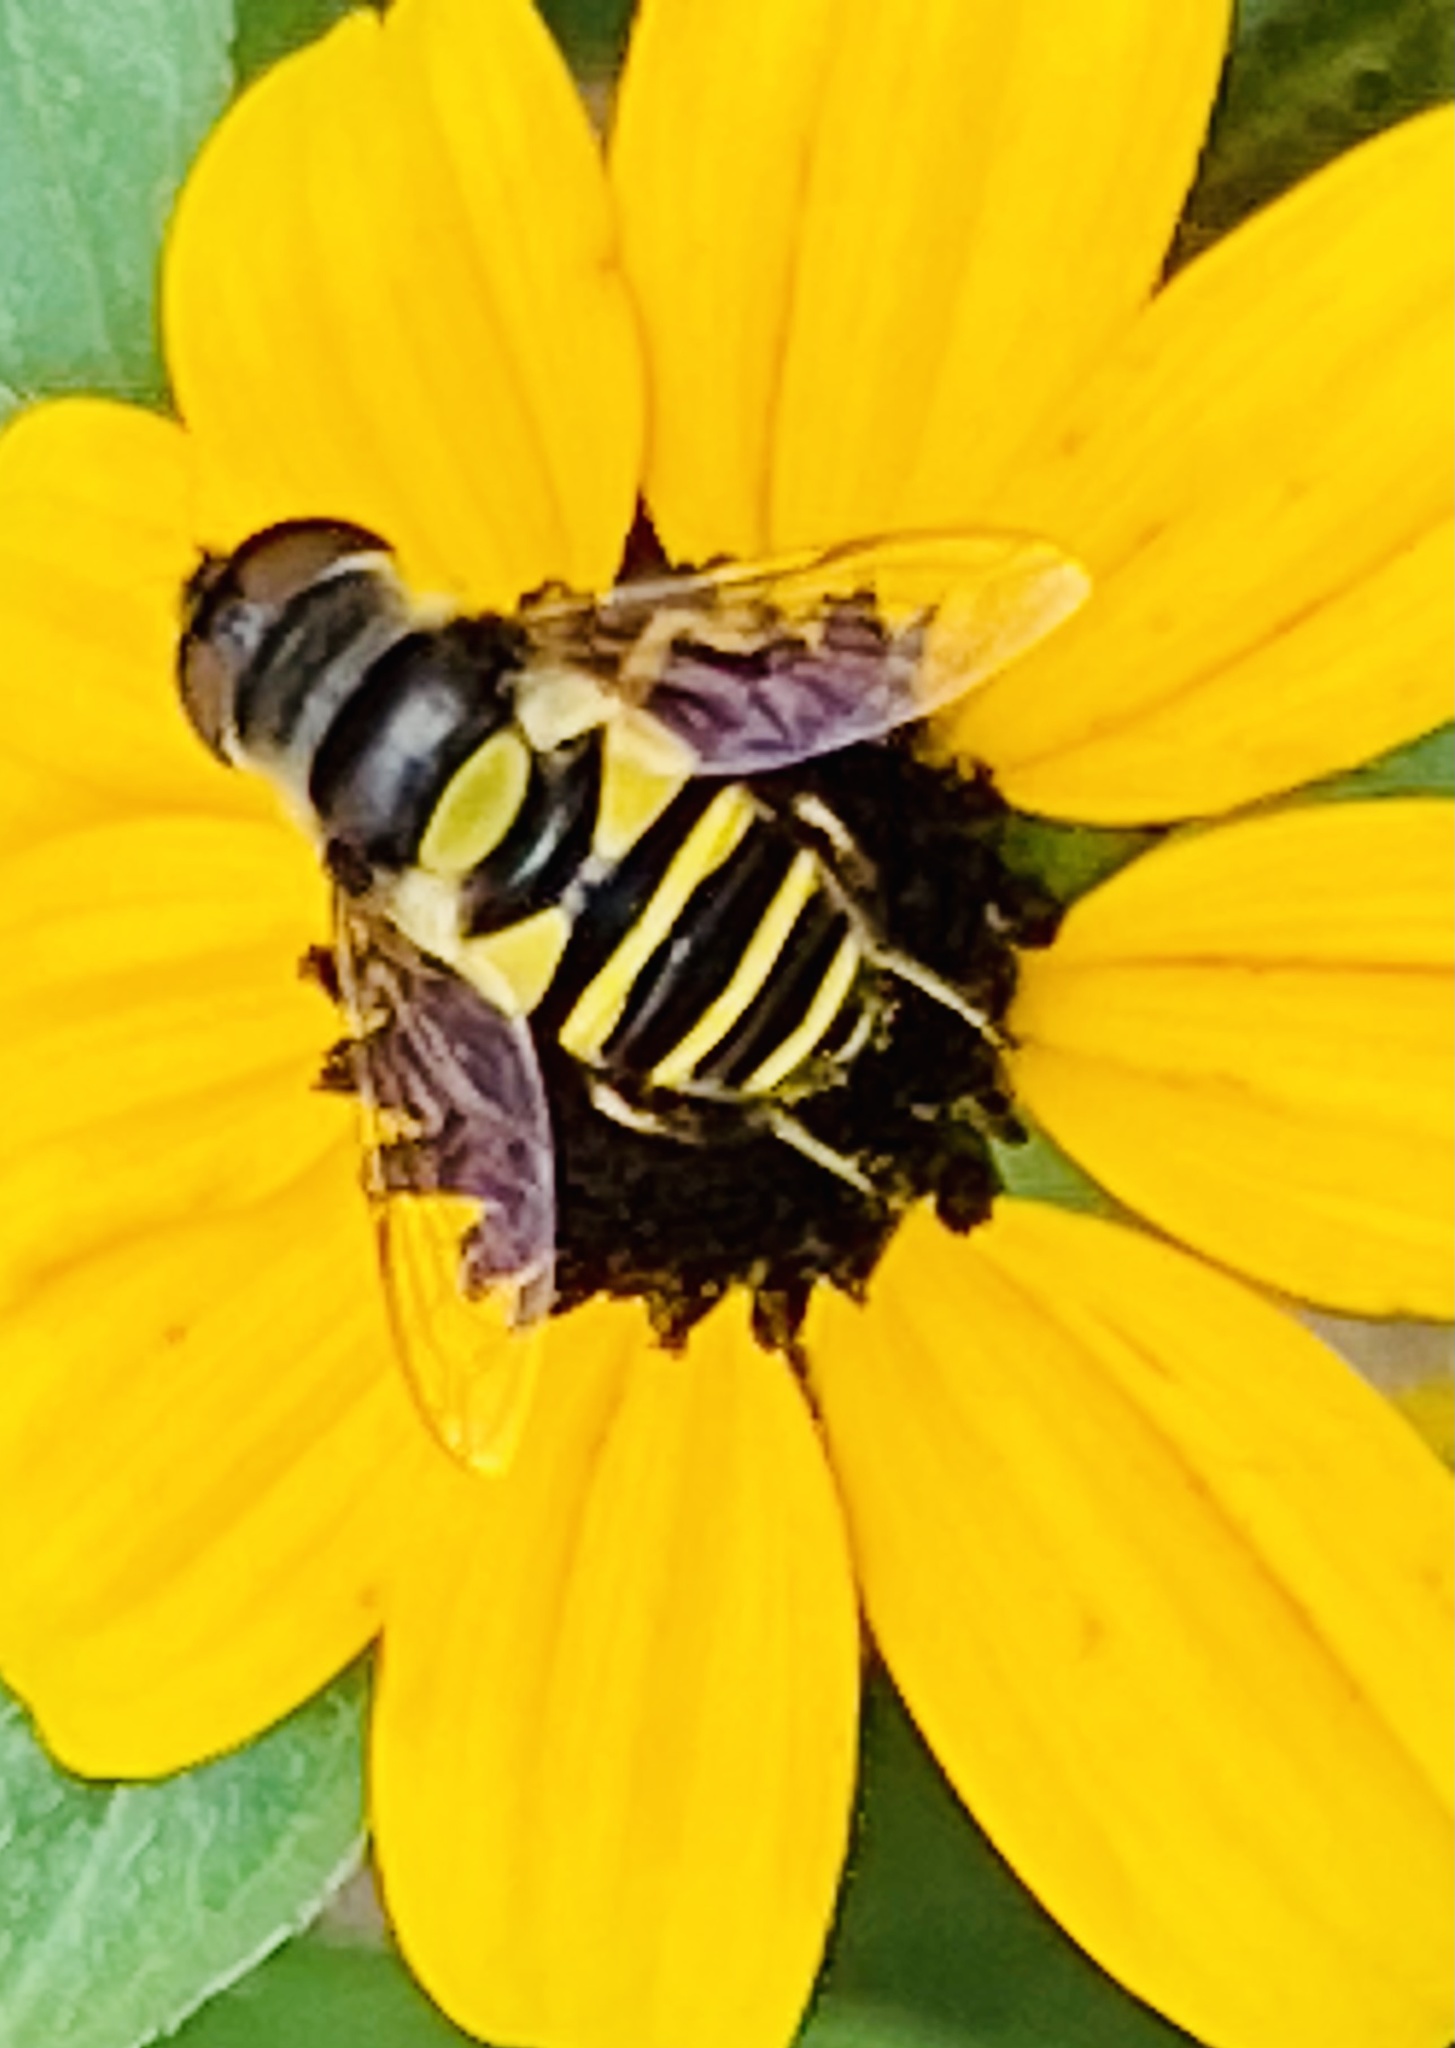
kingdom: Animalia
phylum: Arthropoda
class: Insecta
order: Diptera
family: Syrphidae
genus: Eristalis
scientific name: Eristalis transversa
